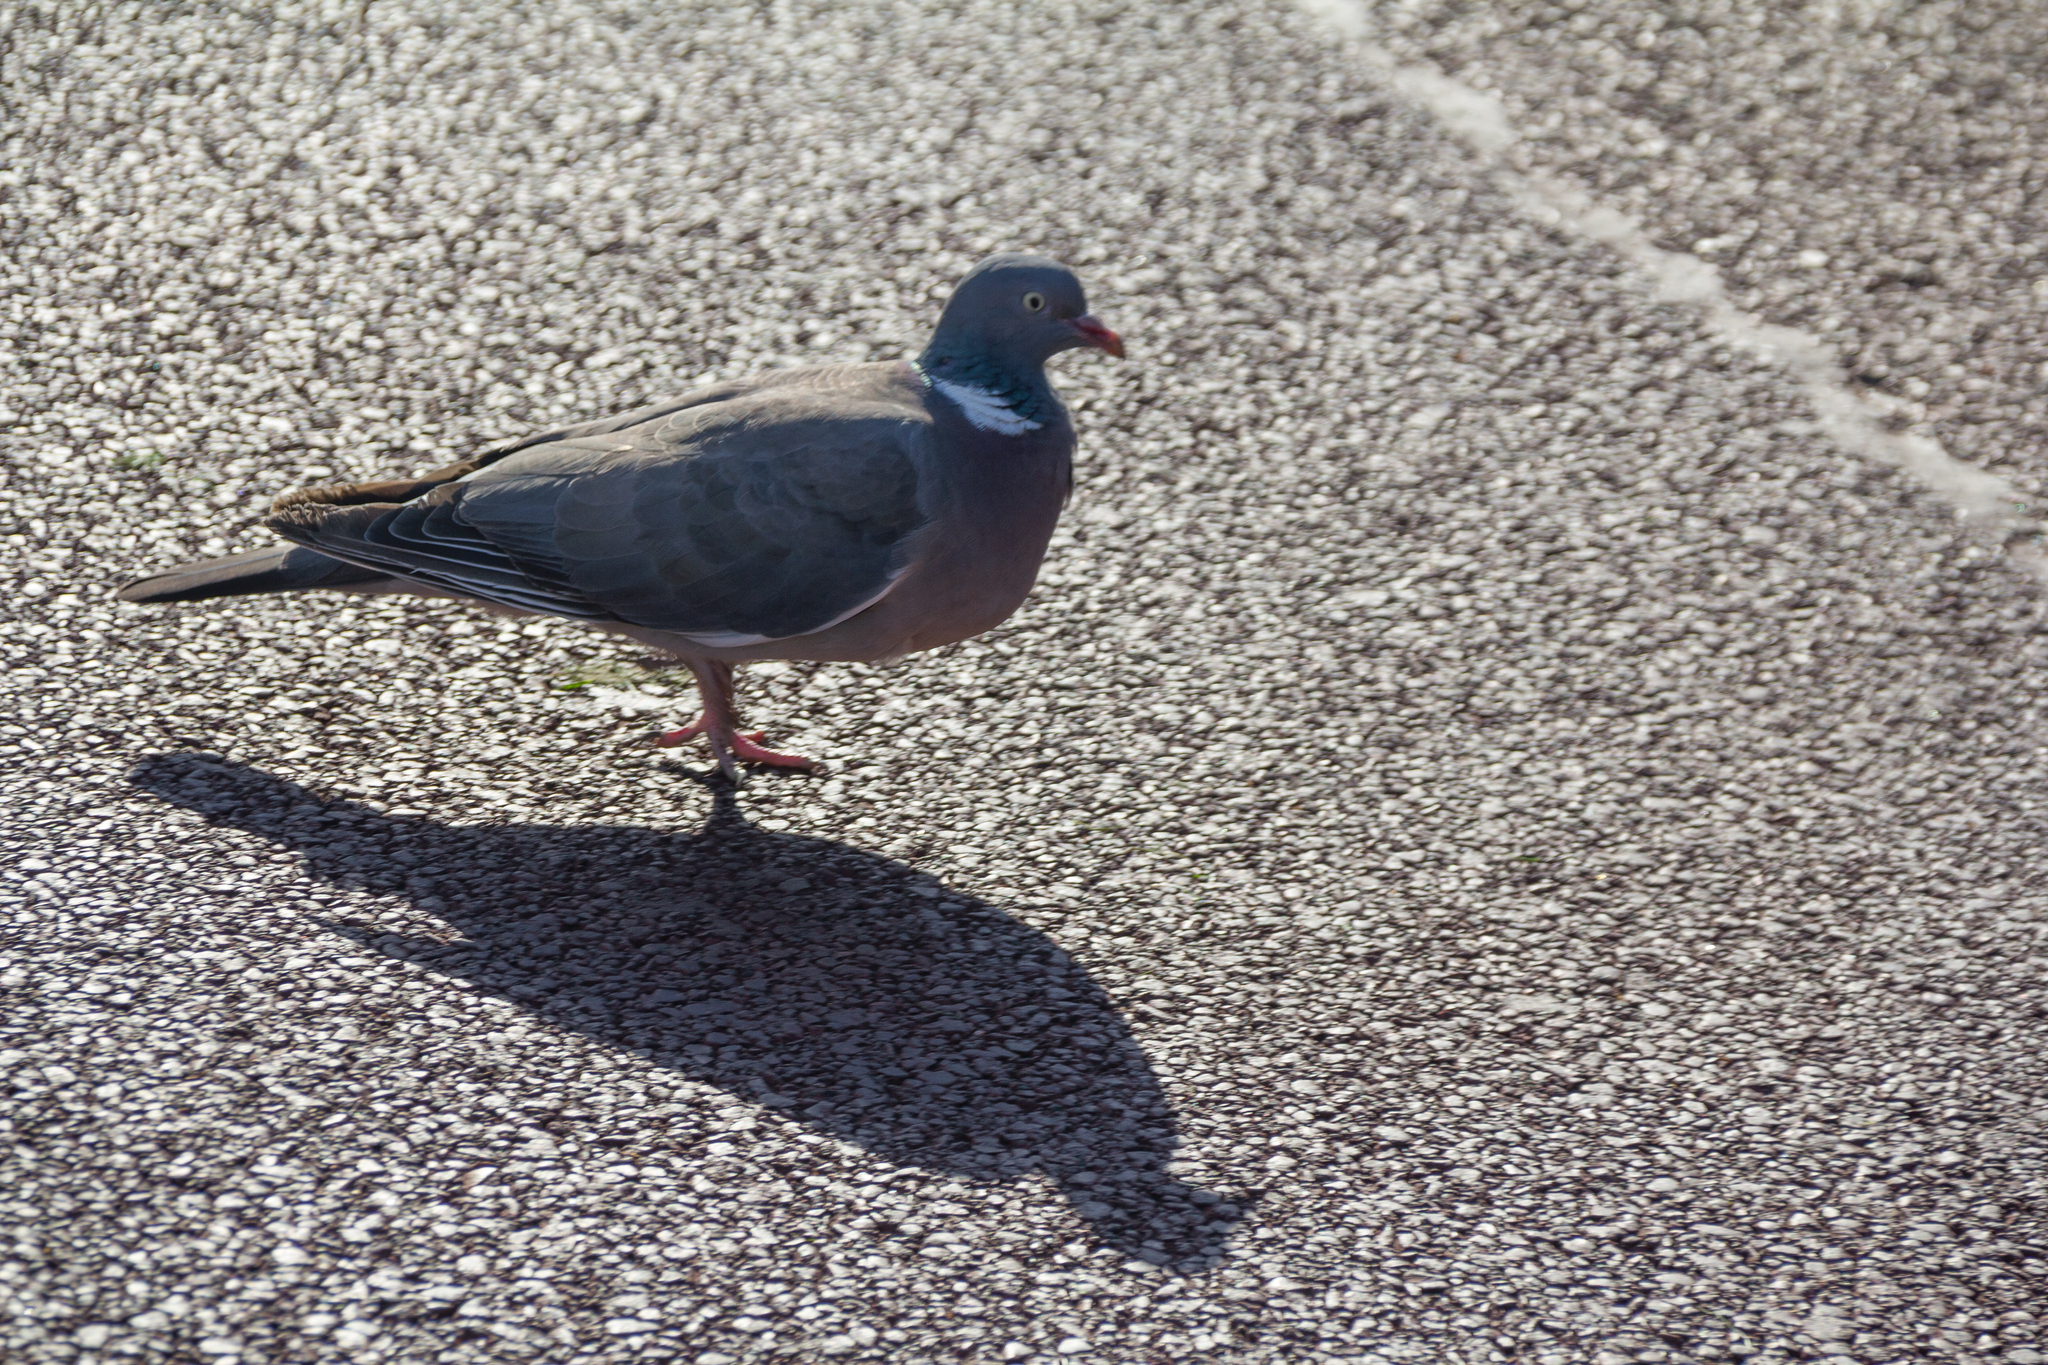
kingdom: Animalia
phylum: Chordata
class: Aves
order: Columbiformes
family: Columbidae
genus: Columba
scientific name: Columba palumbus
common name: Common wood pigeon
